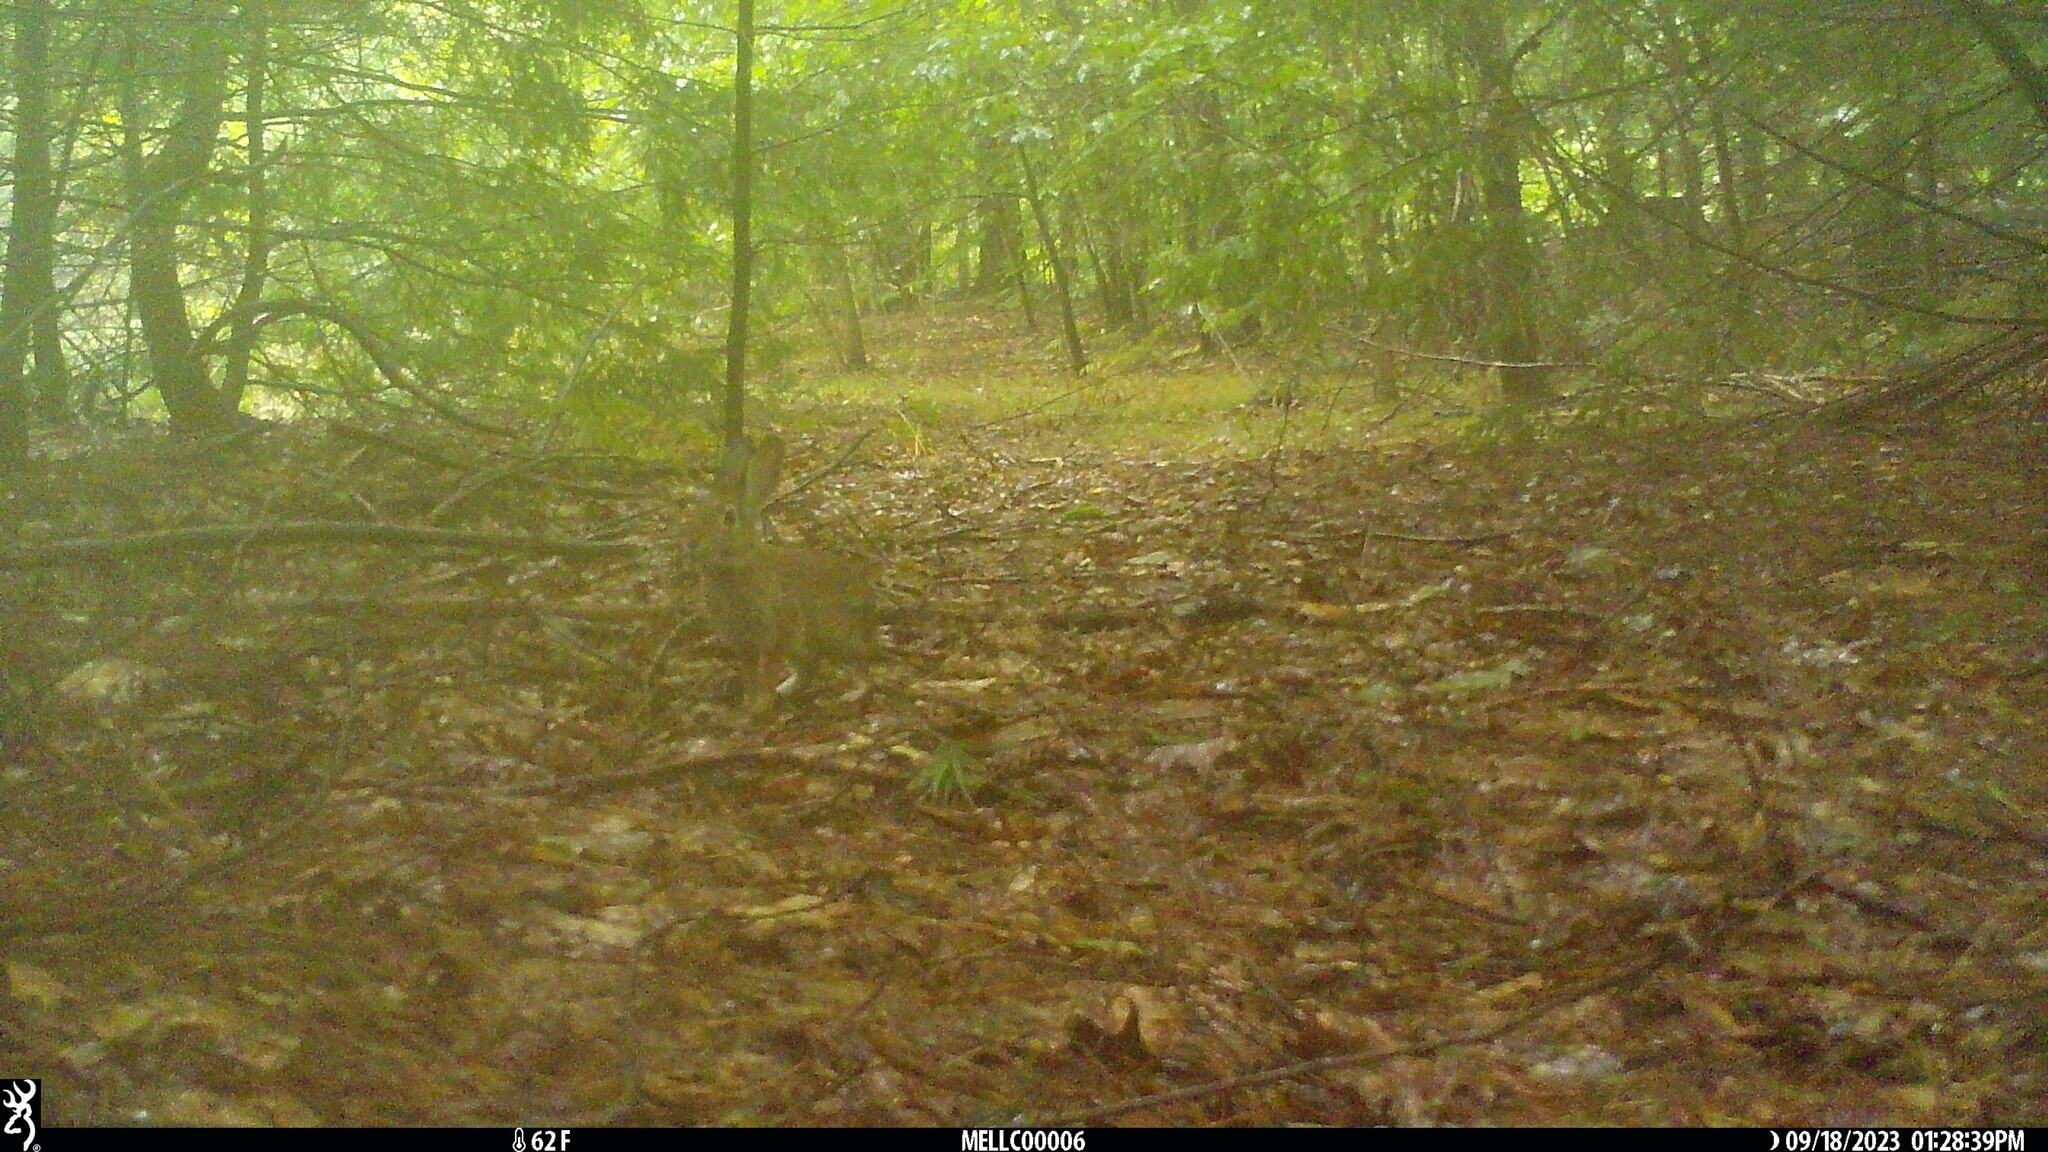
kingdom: Animalia
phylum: Chordata
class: Mammalia
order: Lagomorpha
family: Leporidae
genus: Sylvilagus
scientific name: Sylvilagus floridanus
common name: Eastern cottontail
